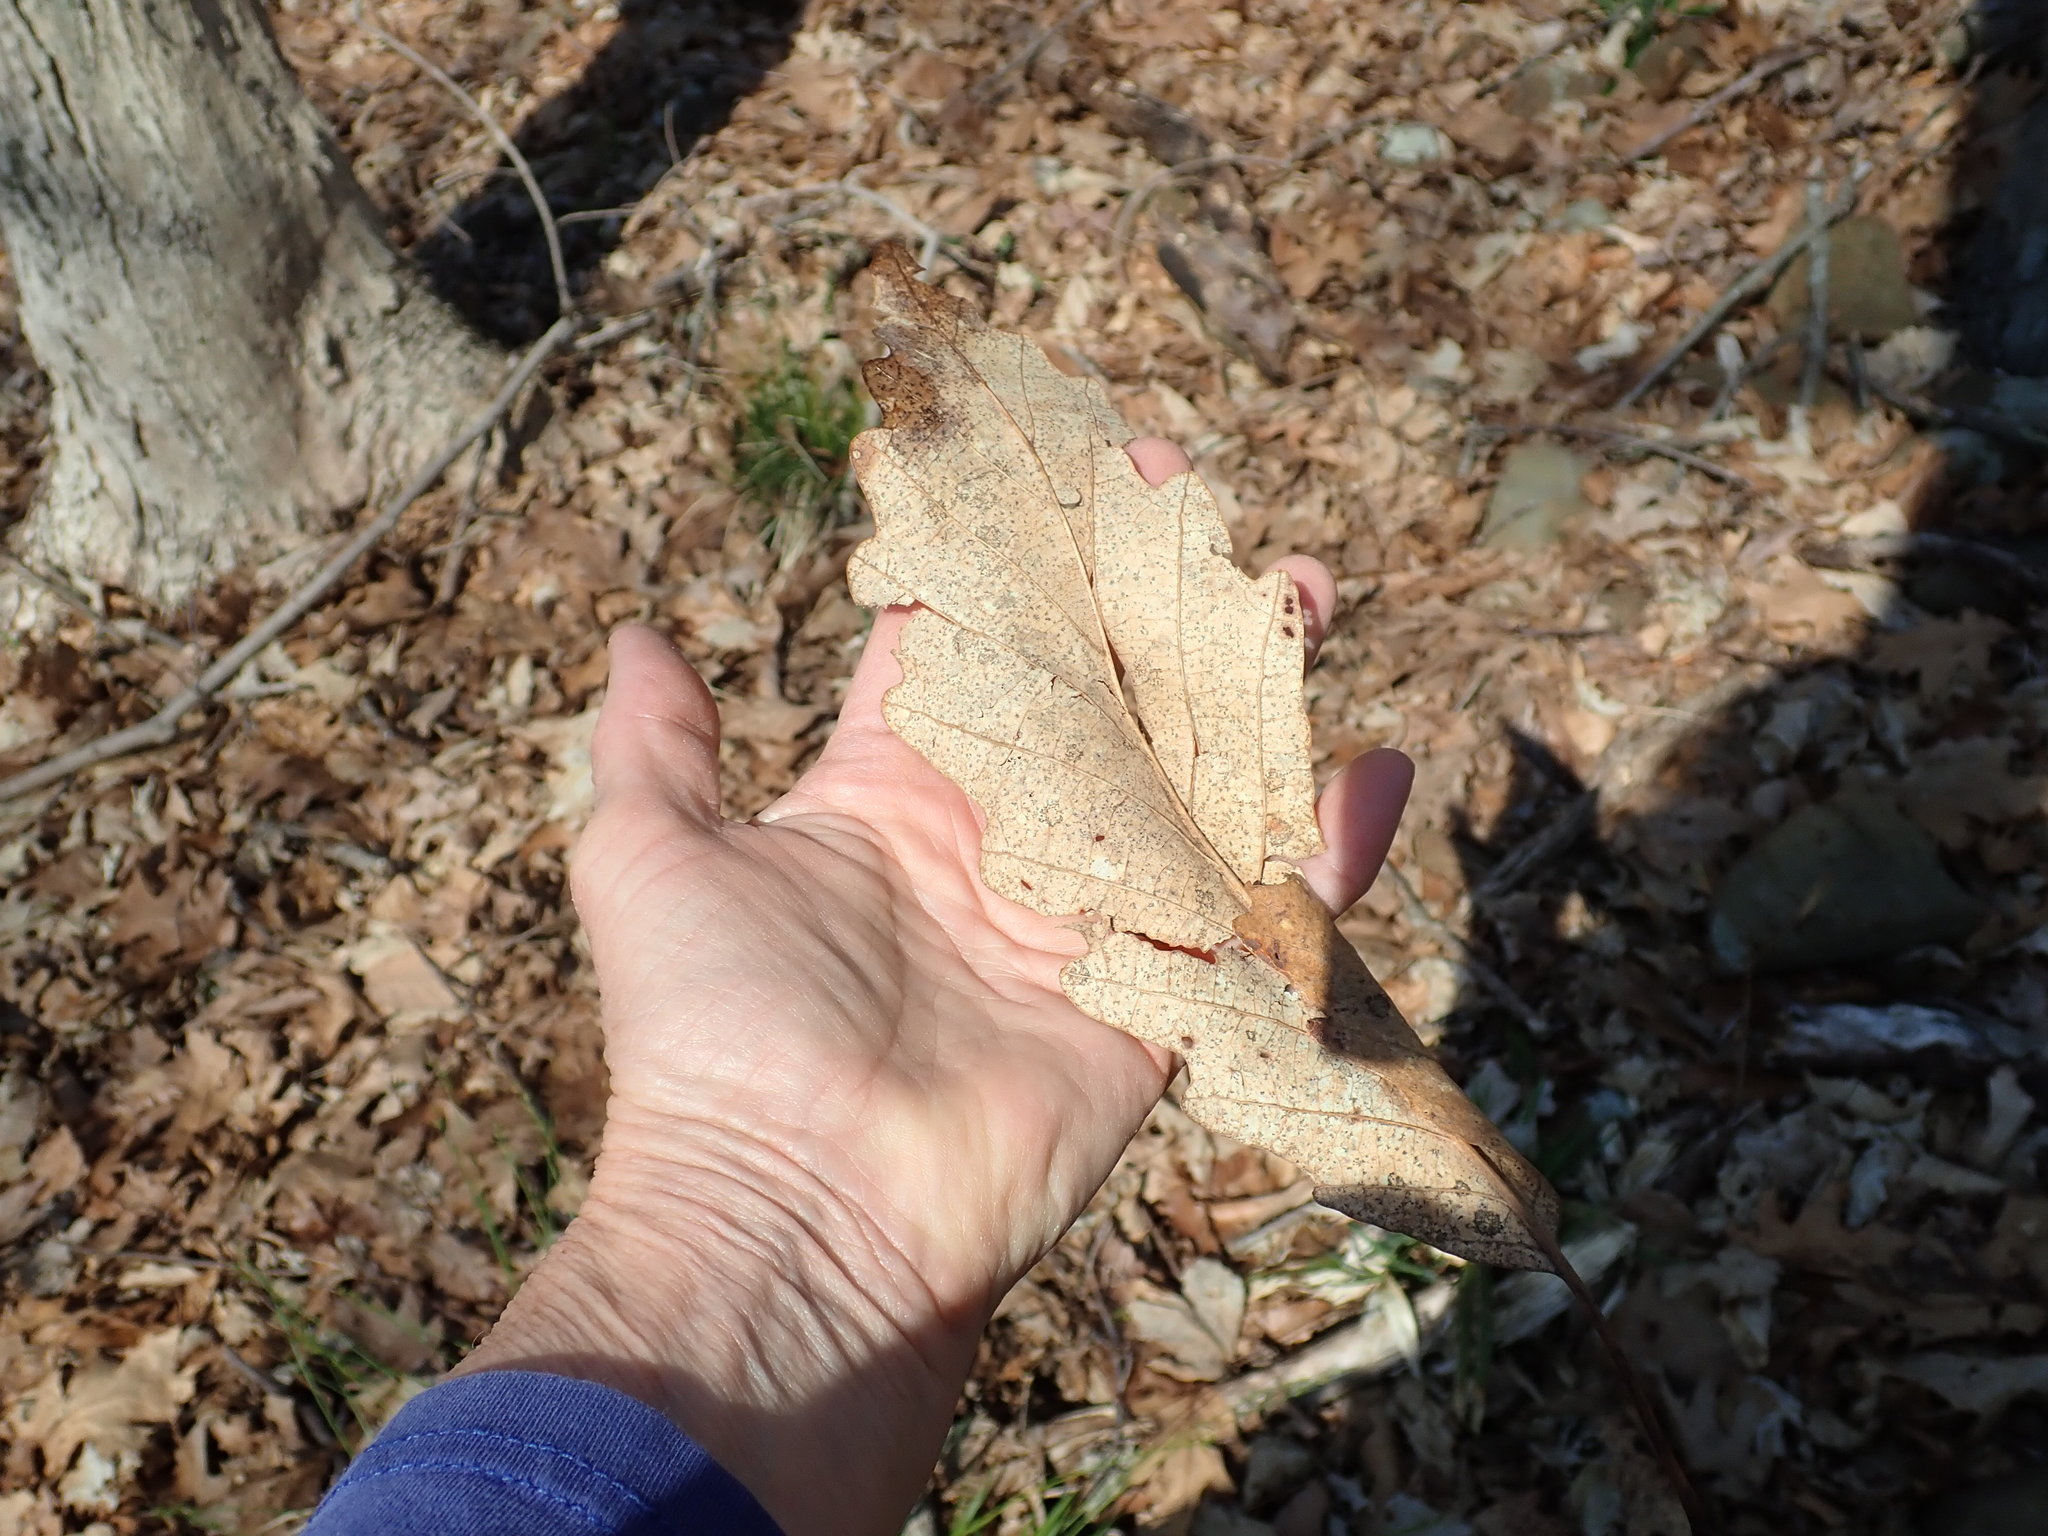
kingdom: Plantae
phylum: Tracheophyta
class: Magnoliopsida
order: Fagales
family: Fagaceae
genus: Quercus
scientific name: Quercus montana
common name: Chestnut oak
